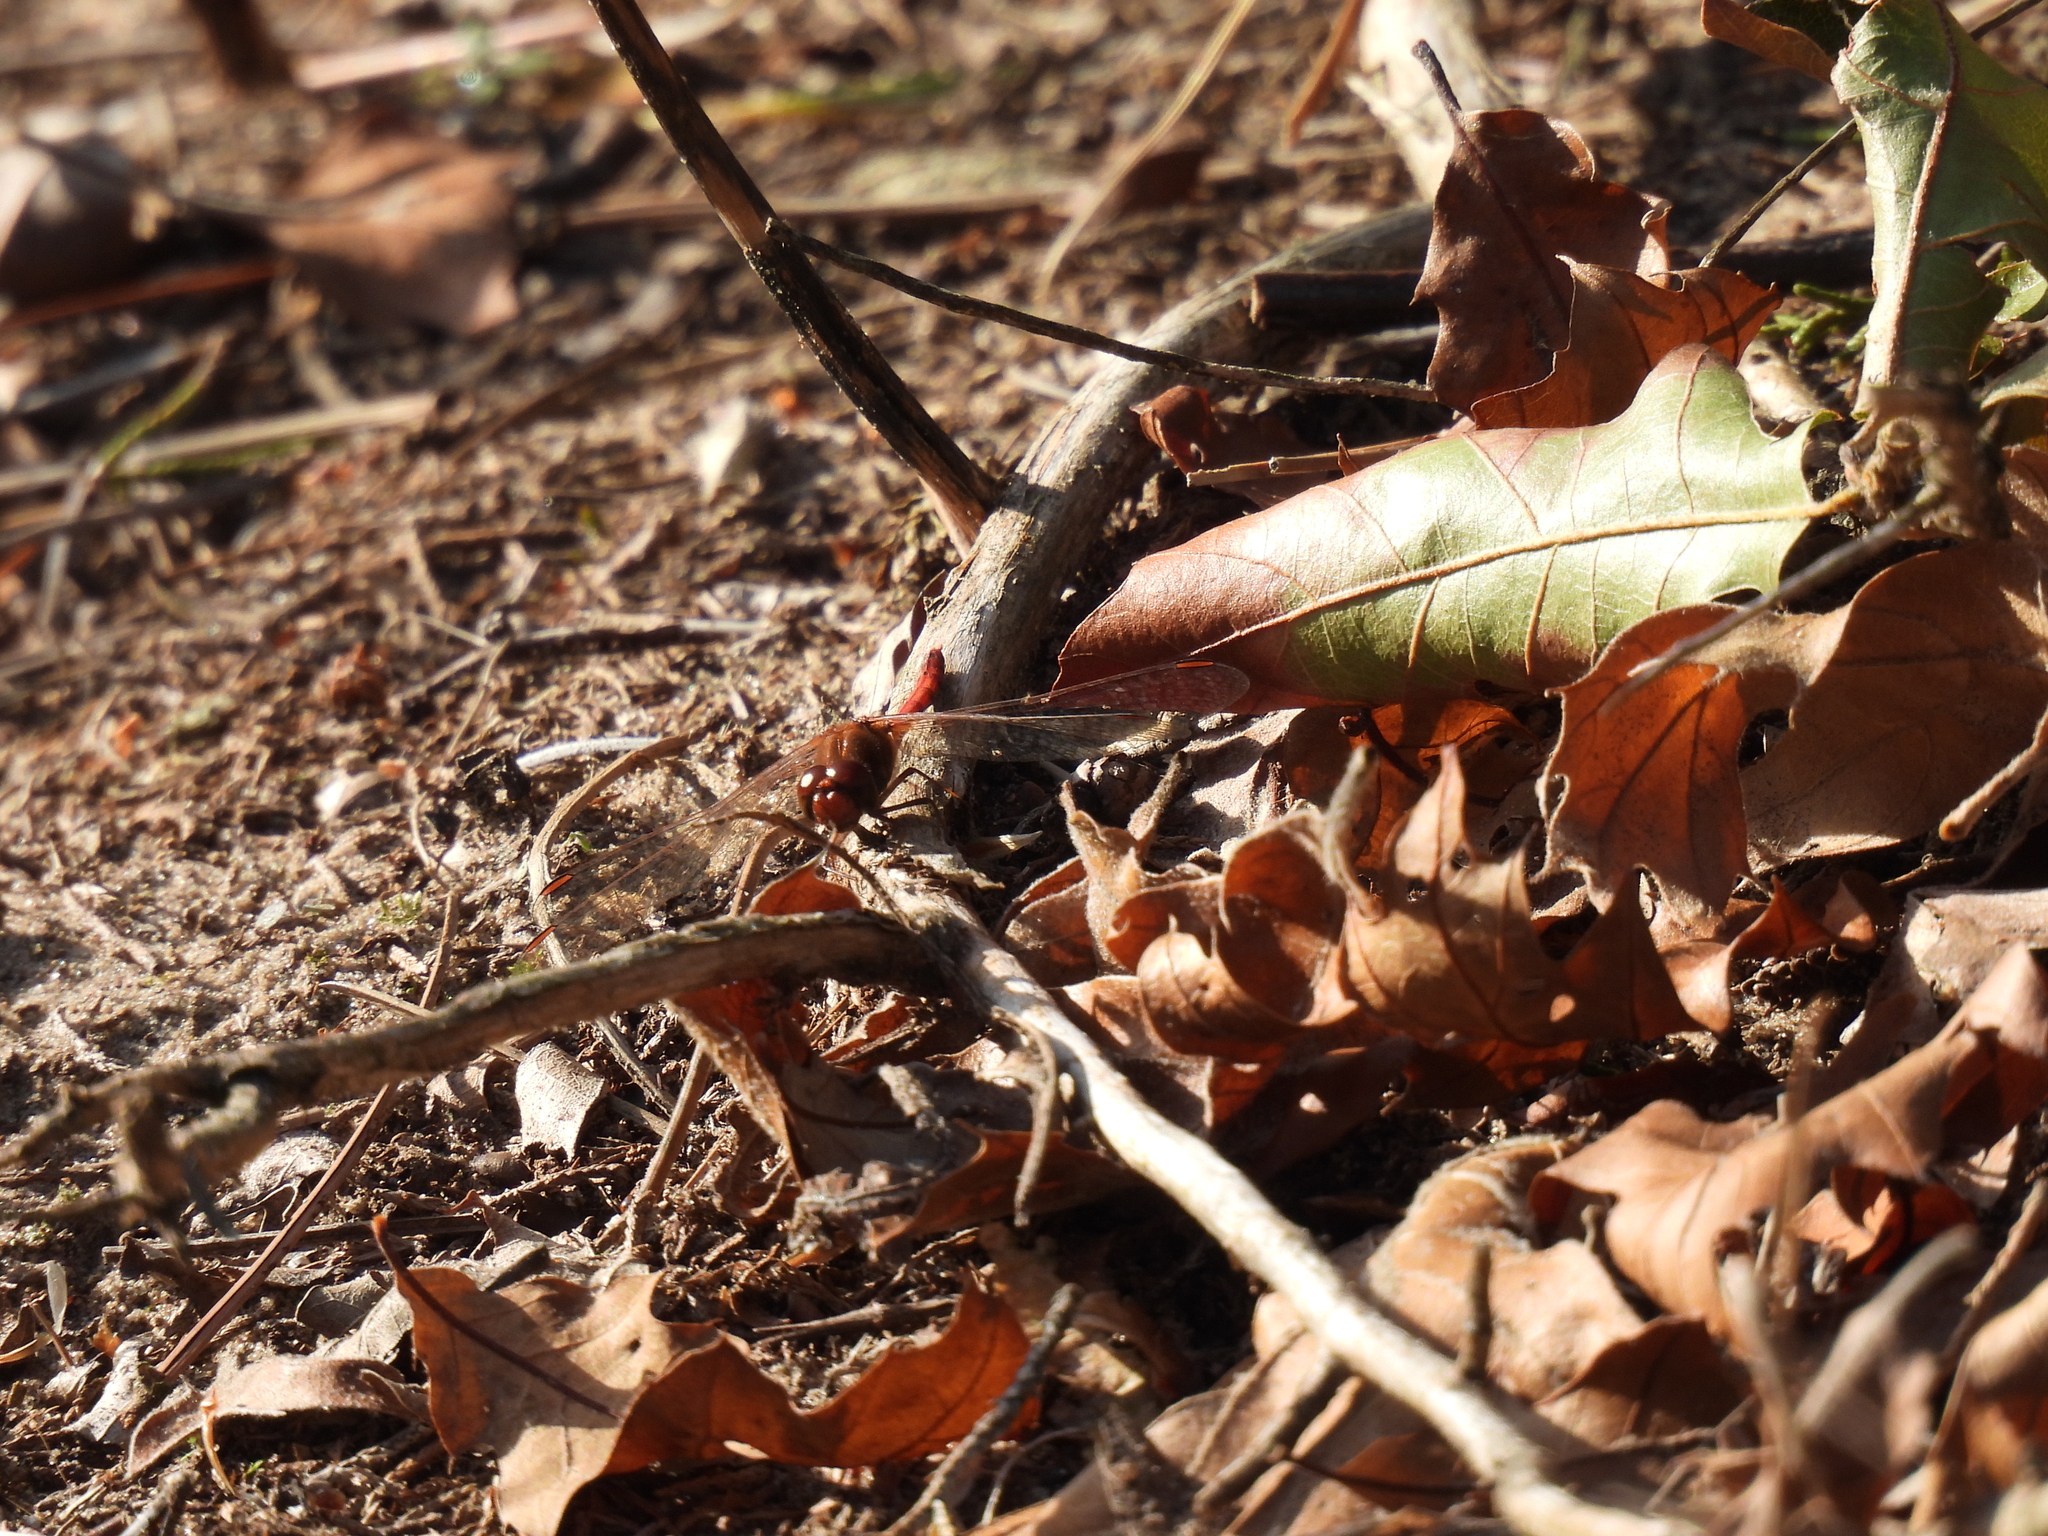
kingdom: Animalia
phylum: Arthropoda
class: Insecta
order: Odonata
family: Libellulidae
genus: Sympetrum
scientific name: Sympetrum vicinum
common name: Autumn meadowhawk
